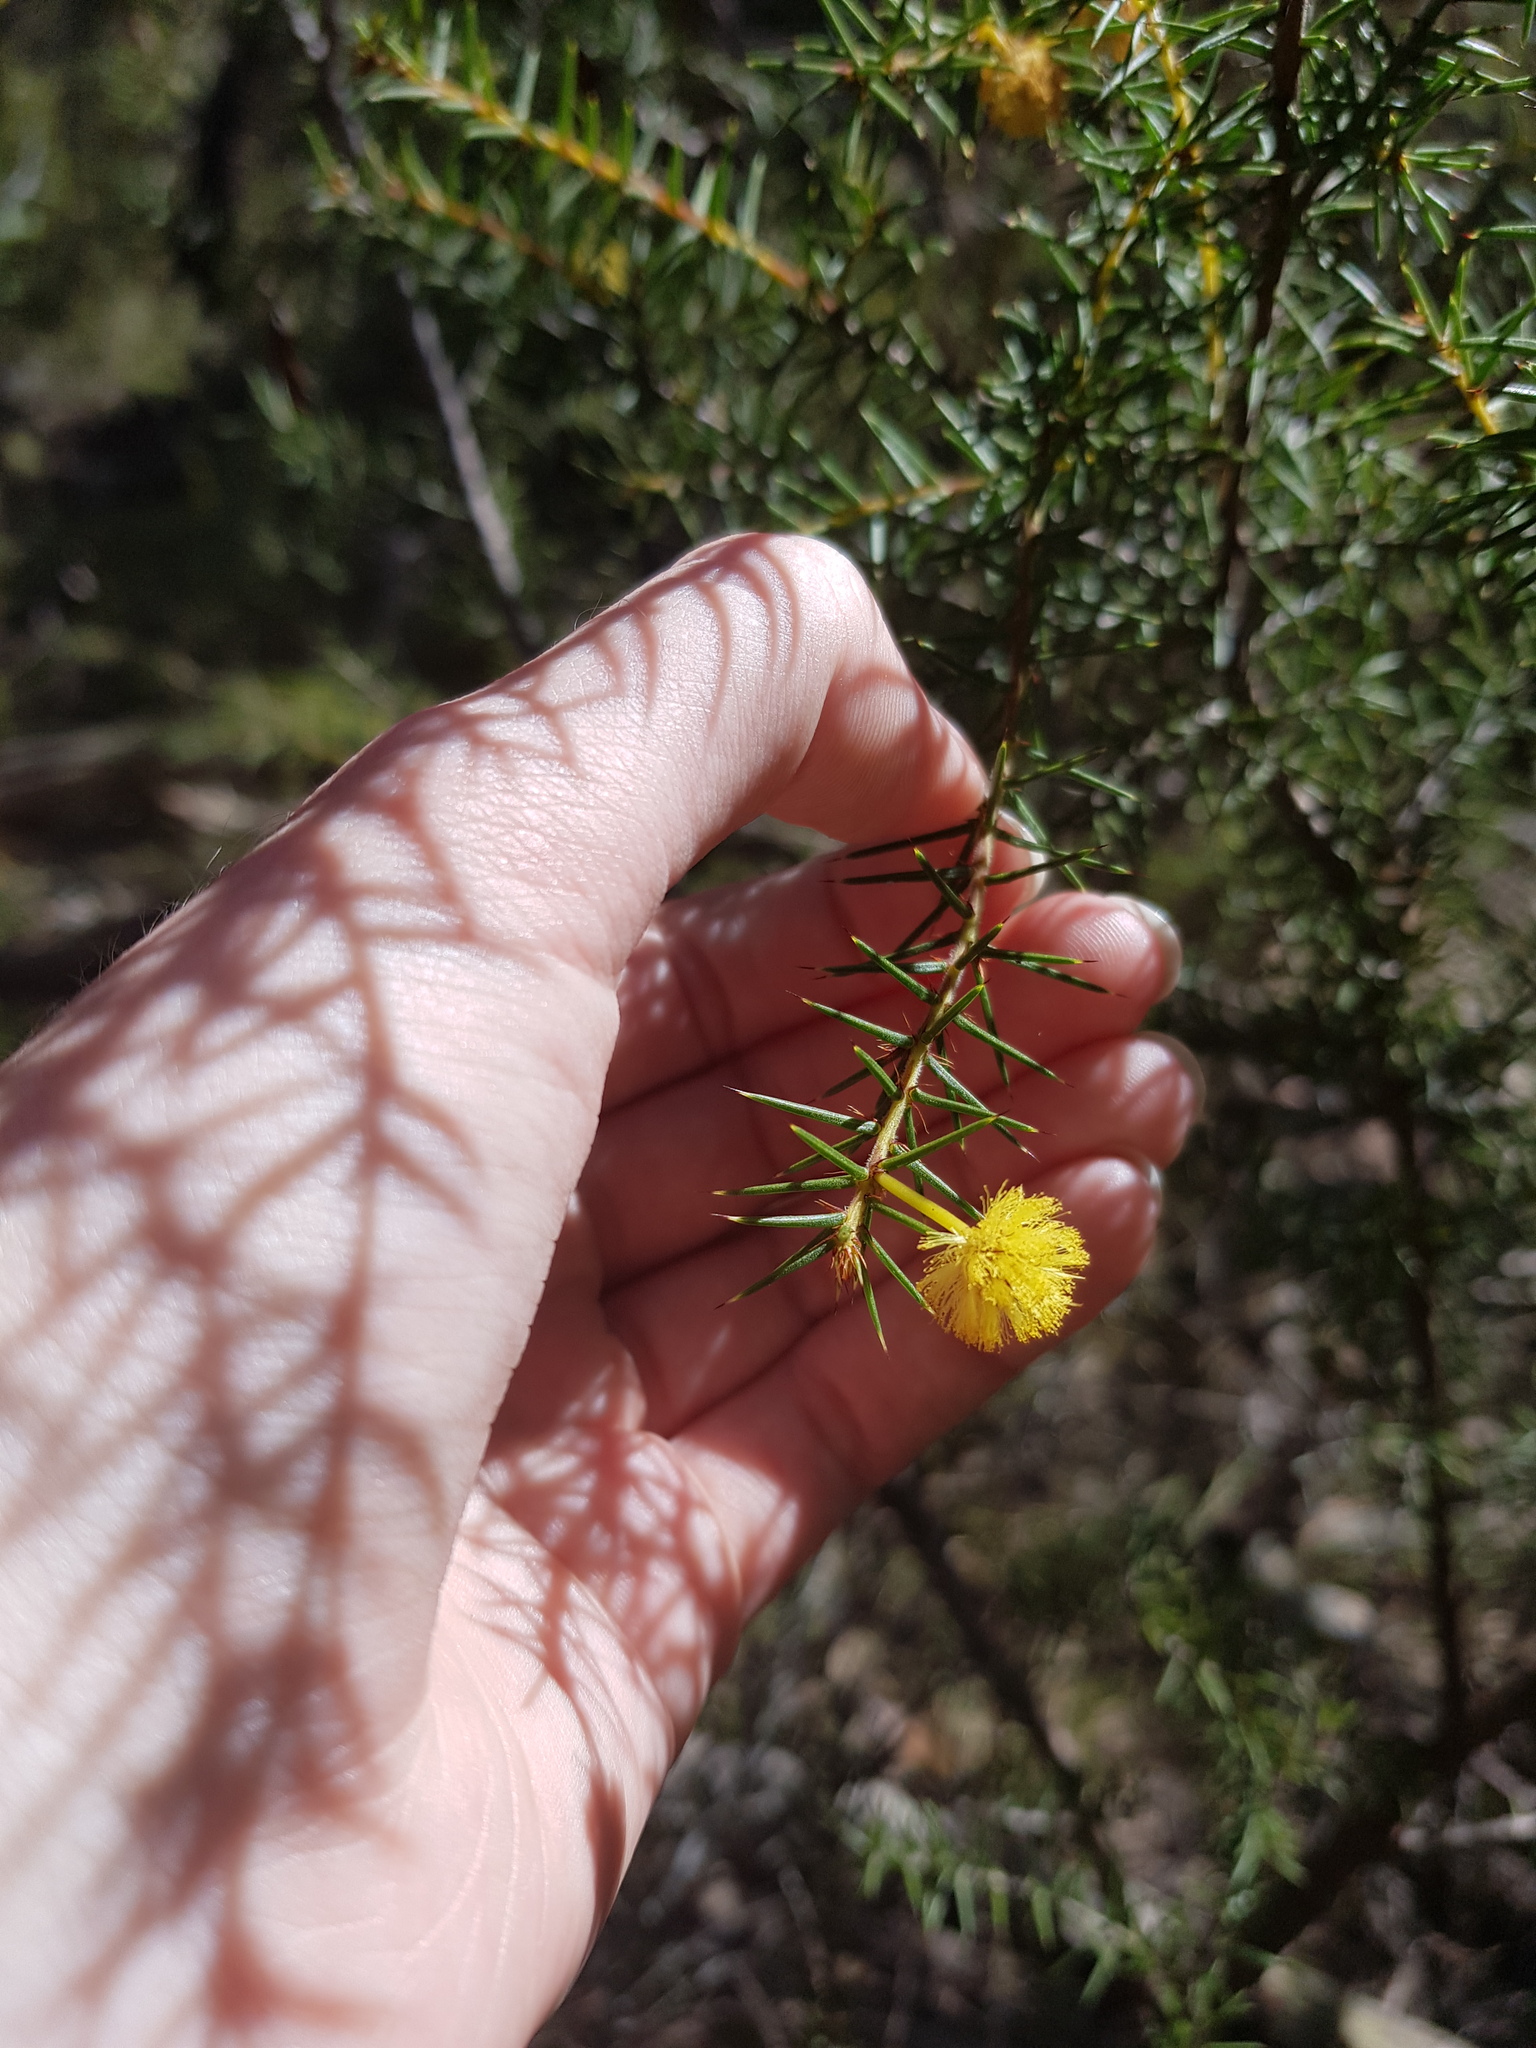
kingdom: Plantae
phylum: Tracheophyta
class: Magnoliopsida
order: Fabales
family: Fabaceae
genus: Acacia
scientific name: Acacia echinula
